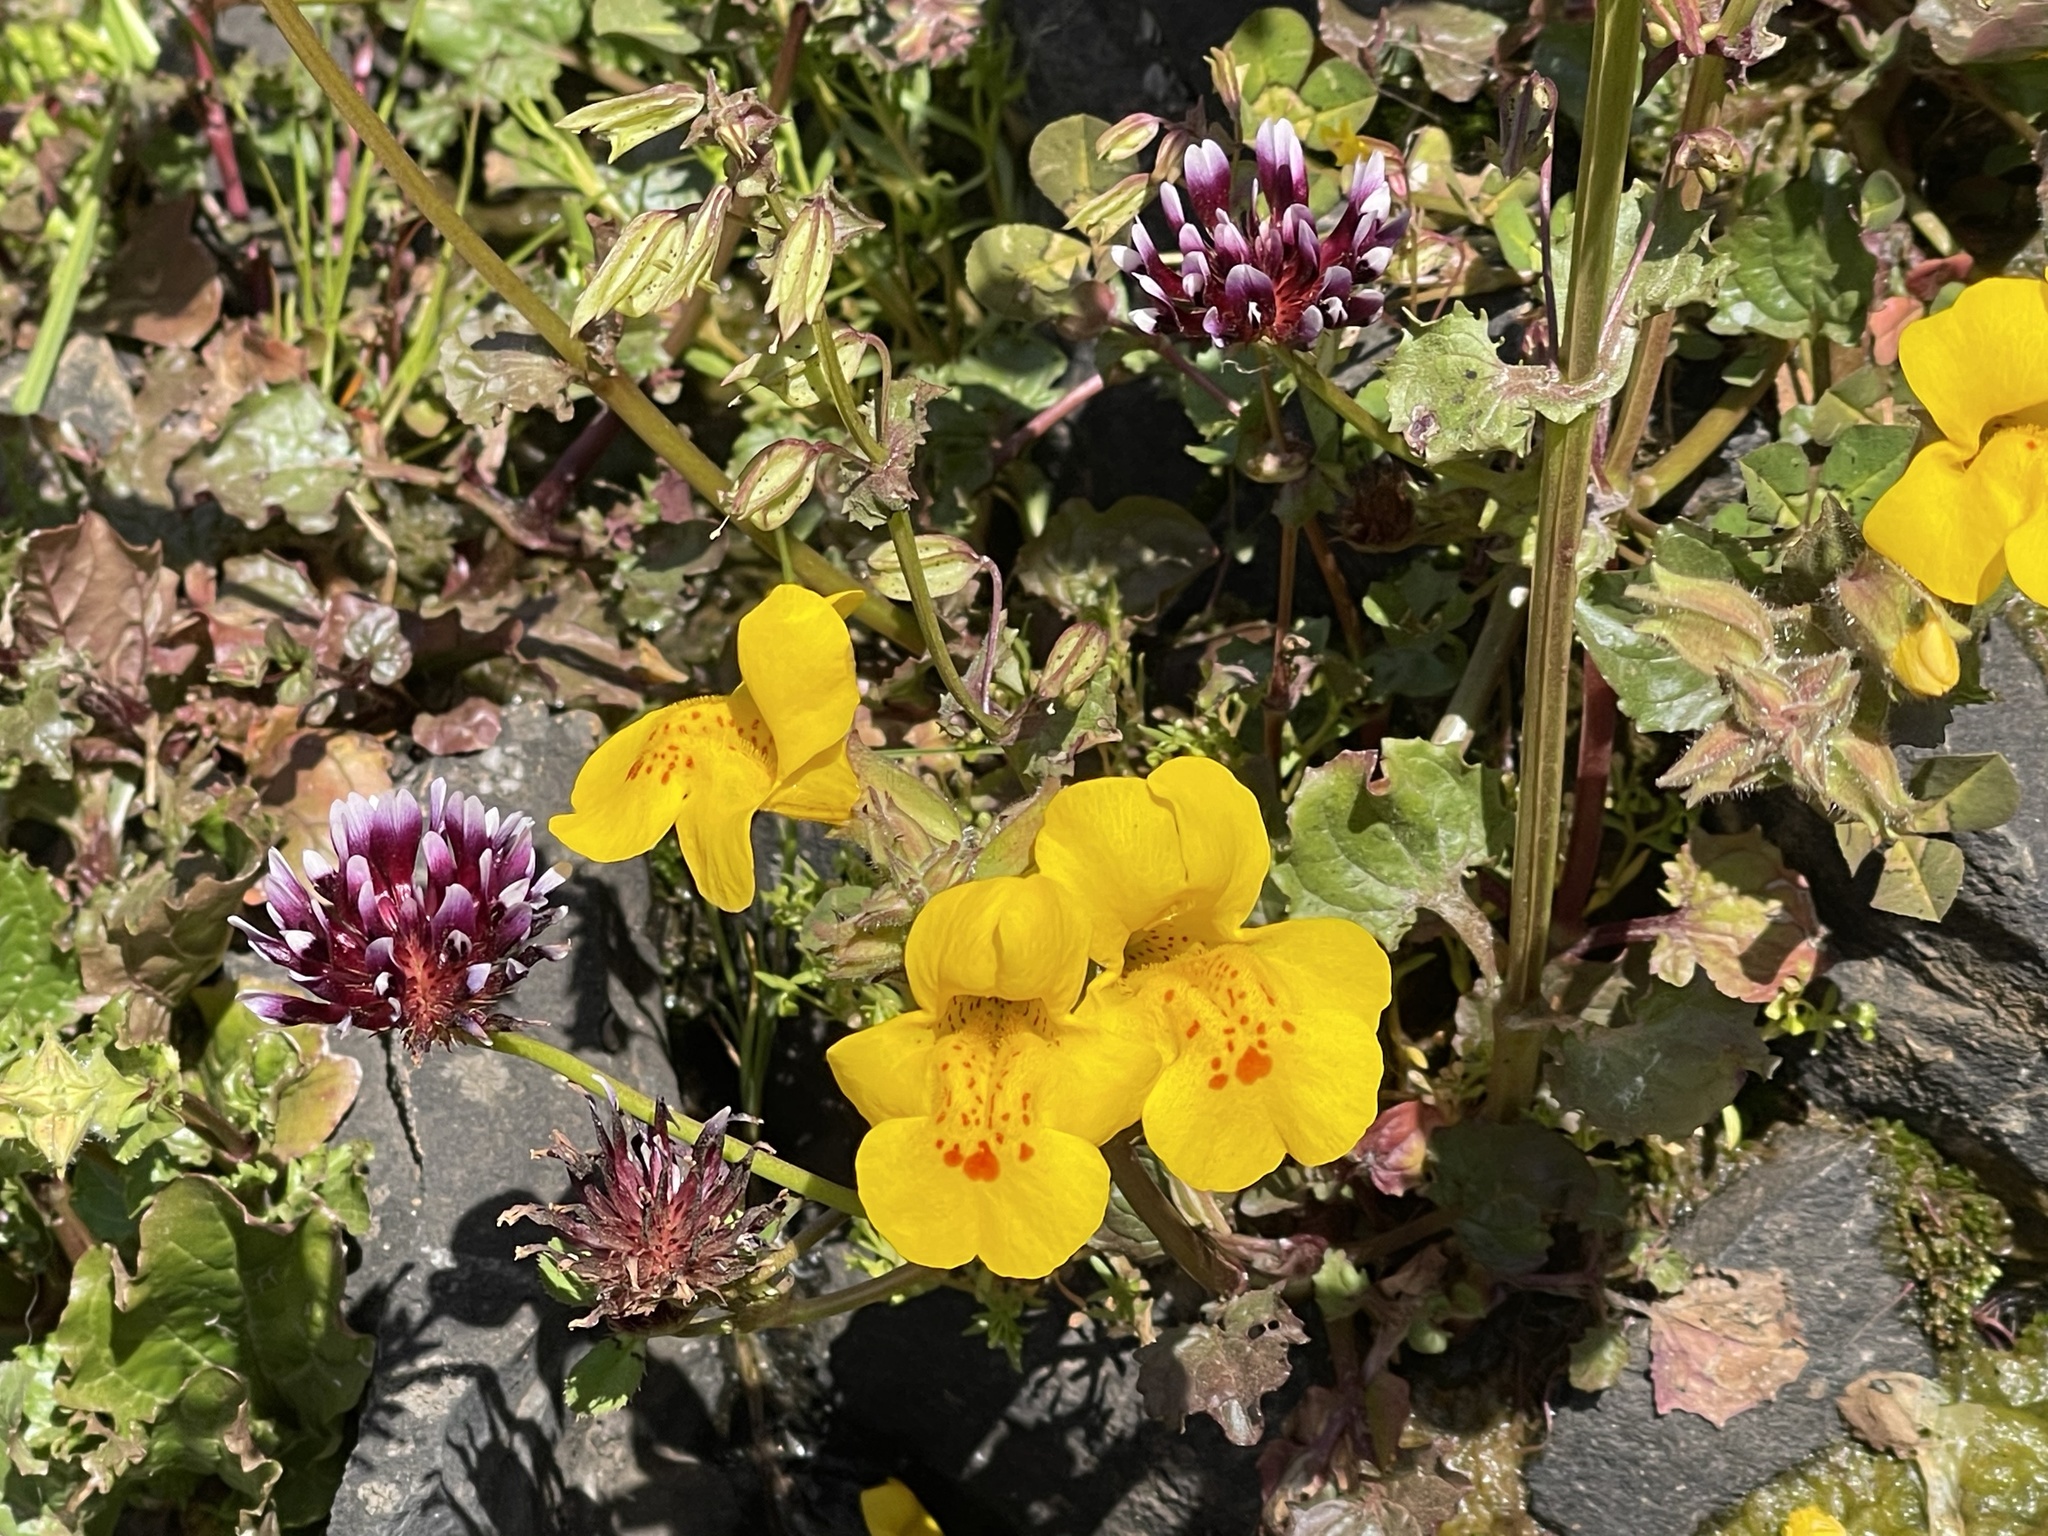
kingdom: Plantae
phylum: Tracheophyta
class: Magnoliopsida
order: Lamiales
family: Phrymaceae
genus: Erythranthe
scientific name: Erythranthe guttata
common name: Monkeyflower
